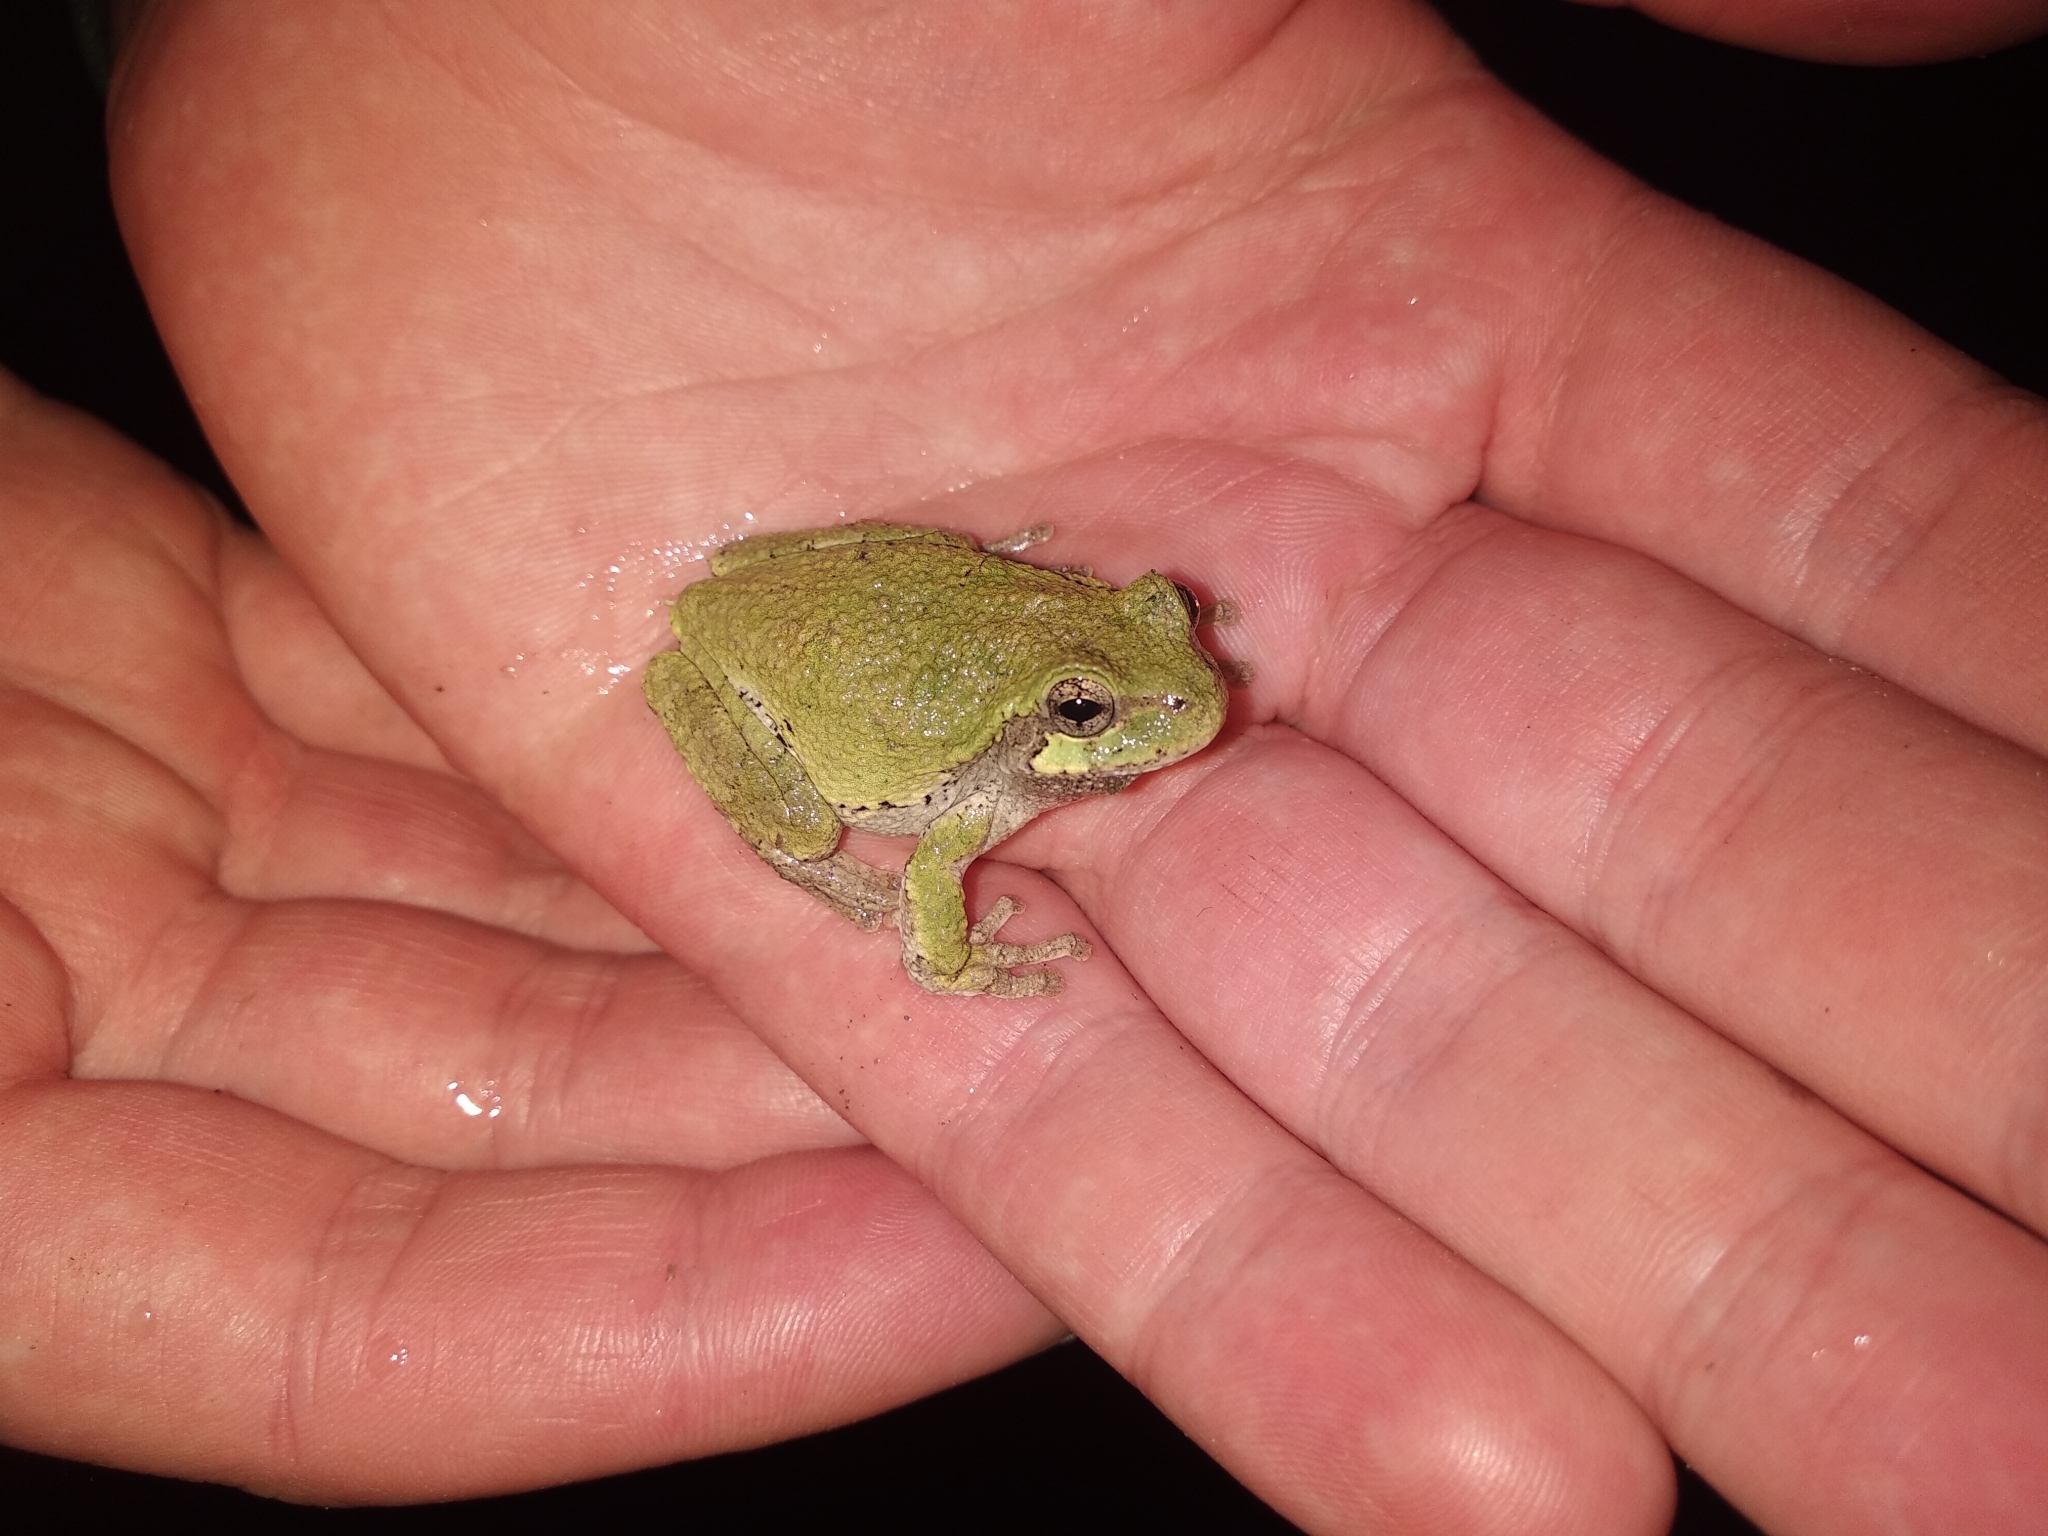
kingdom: Animalia
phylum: Chordata
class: Amphibia
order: Anura
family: Hylidae
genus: Hyla
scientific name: Hyla
